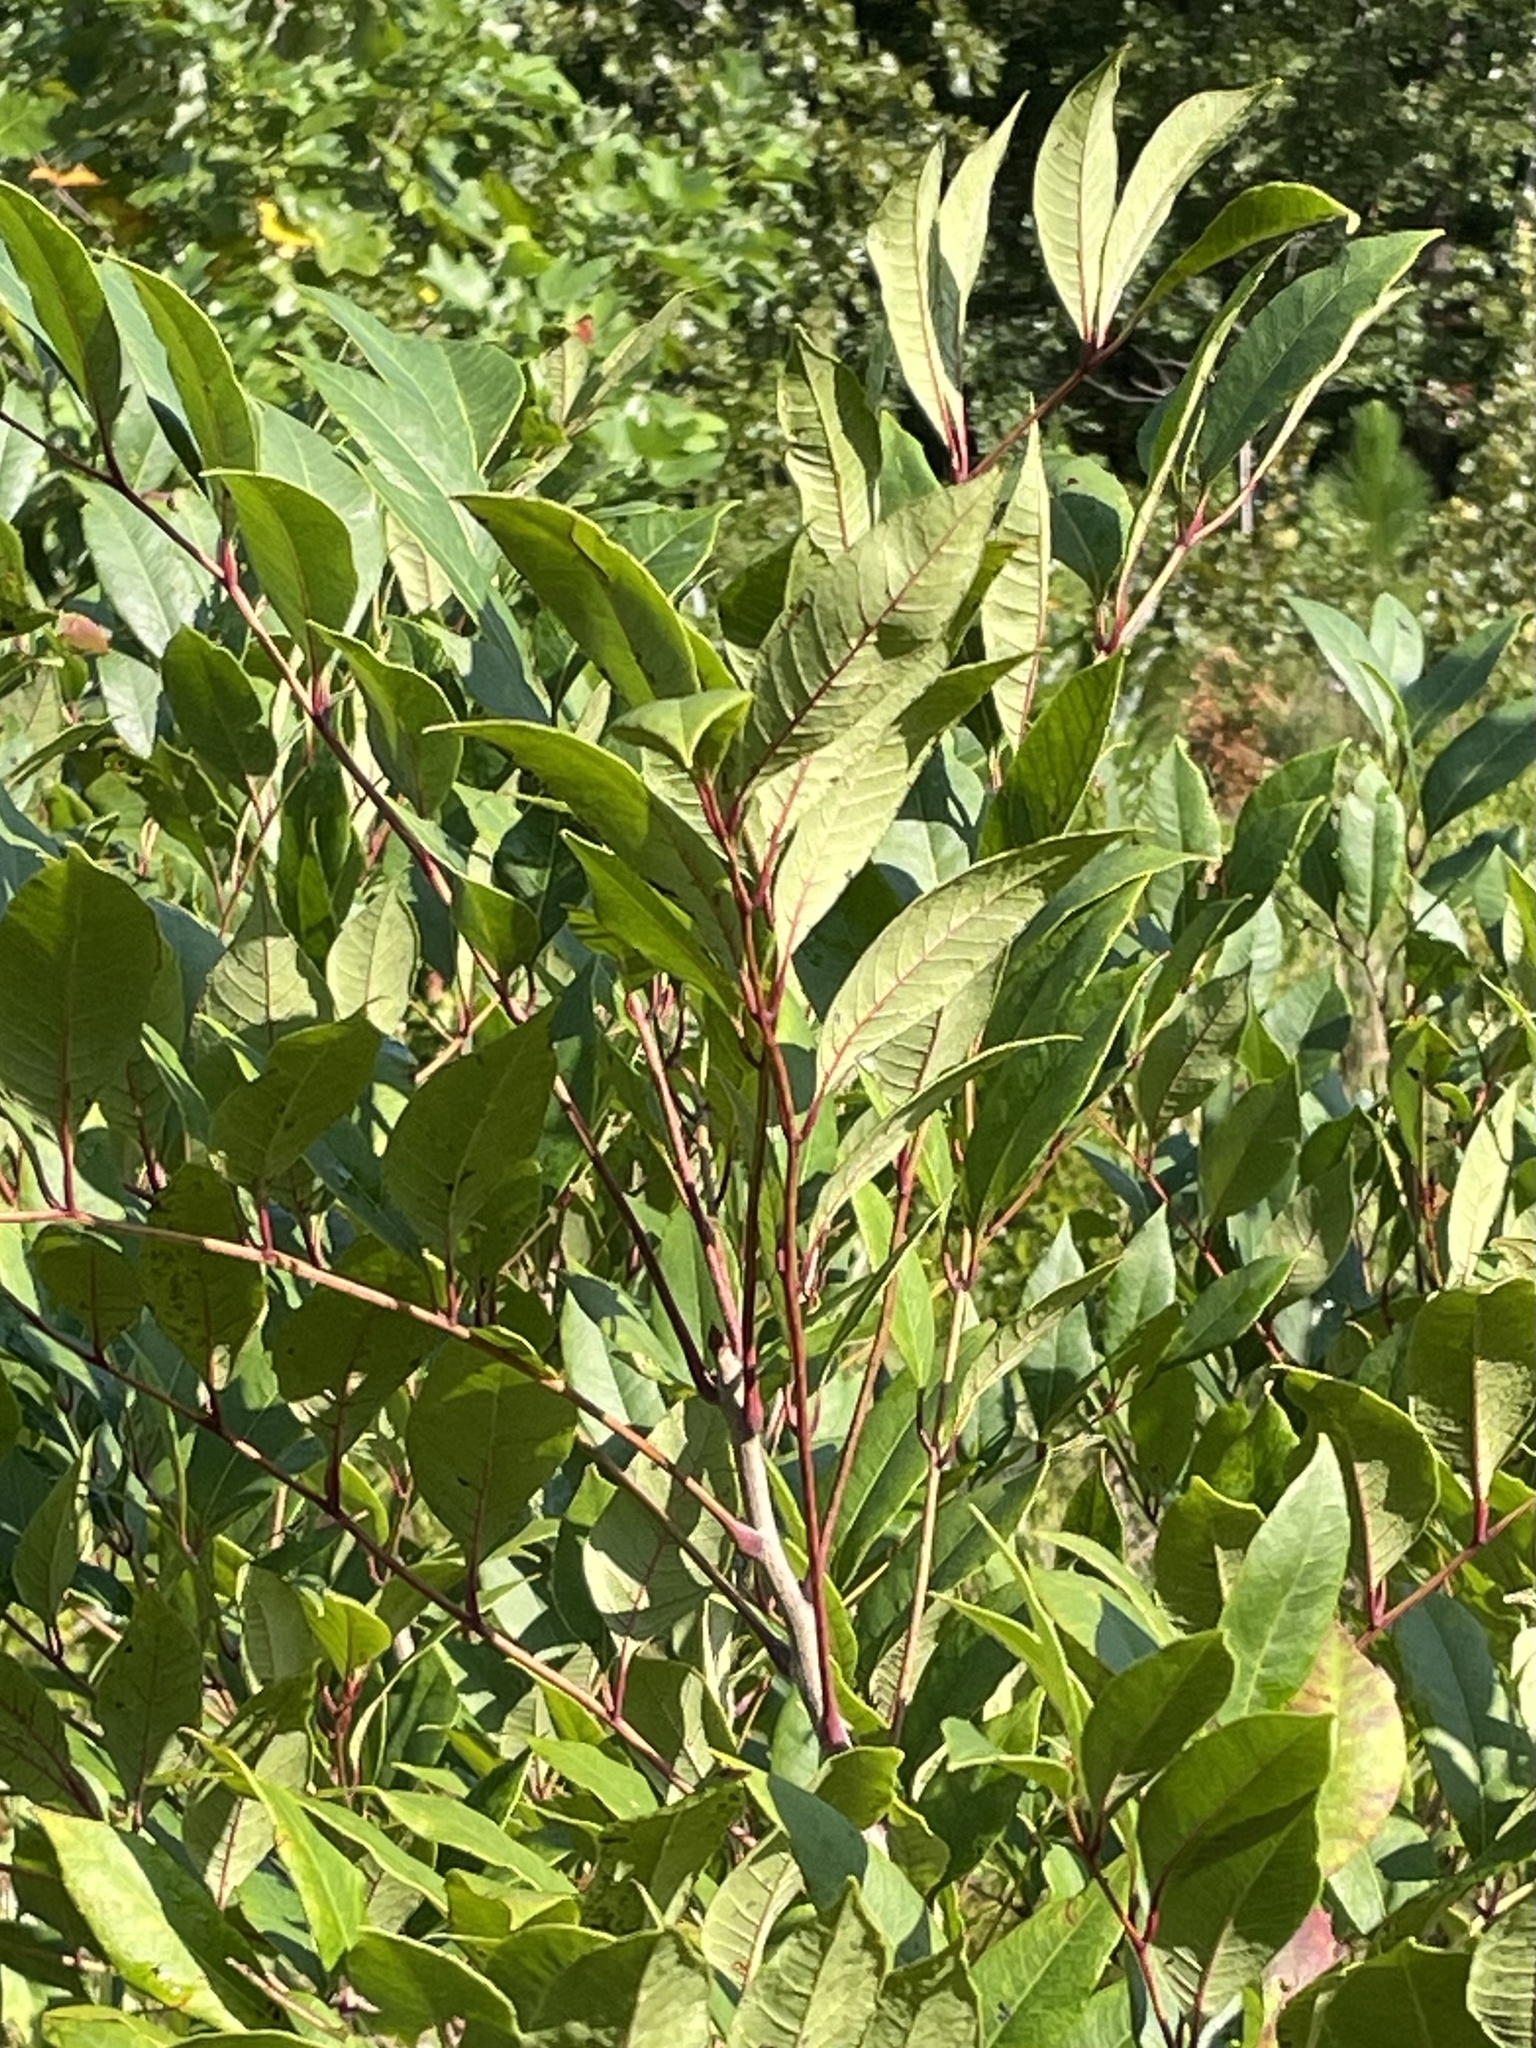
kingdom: Plantae
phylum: Tracheophyta
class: Magnoliopsida
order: Sapindales
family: Anacardiaceae
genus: Toxicodendron
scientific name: Toxicodendron vernix
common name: Poison sumac
